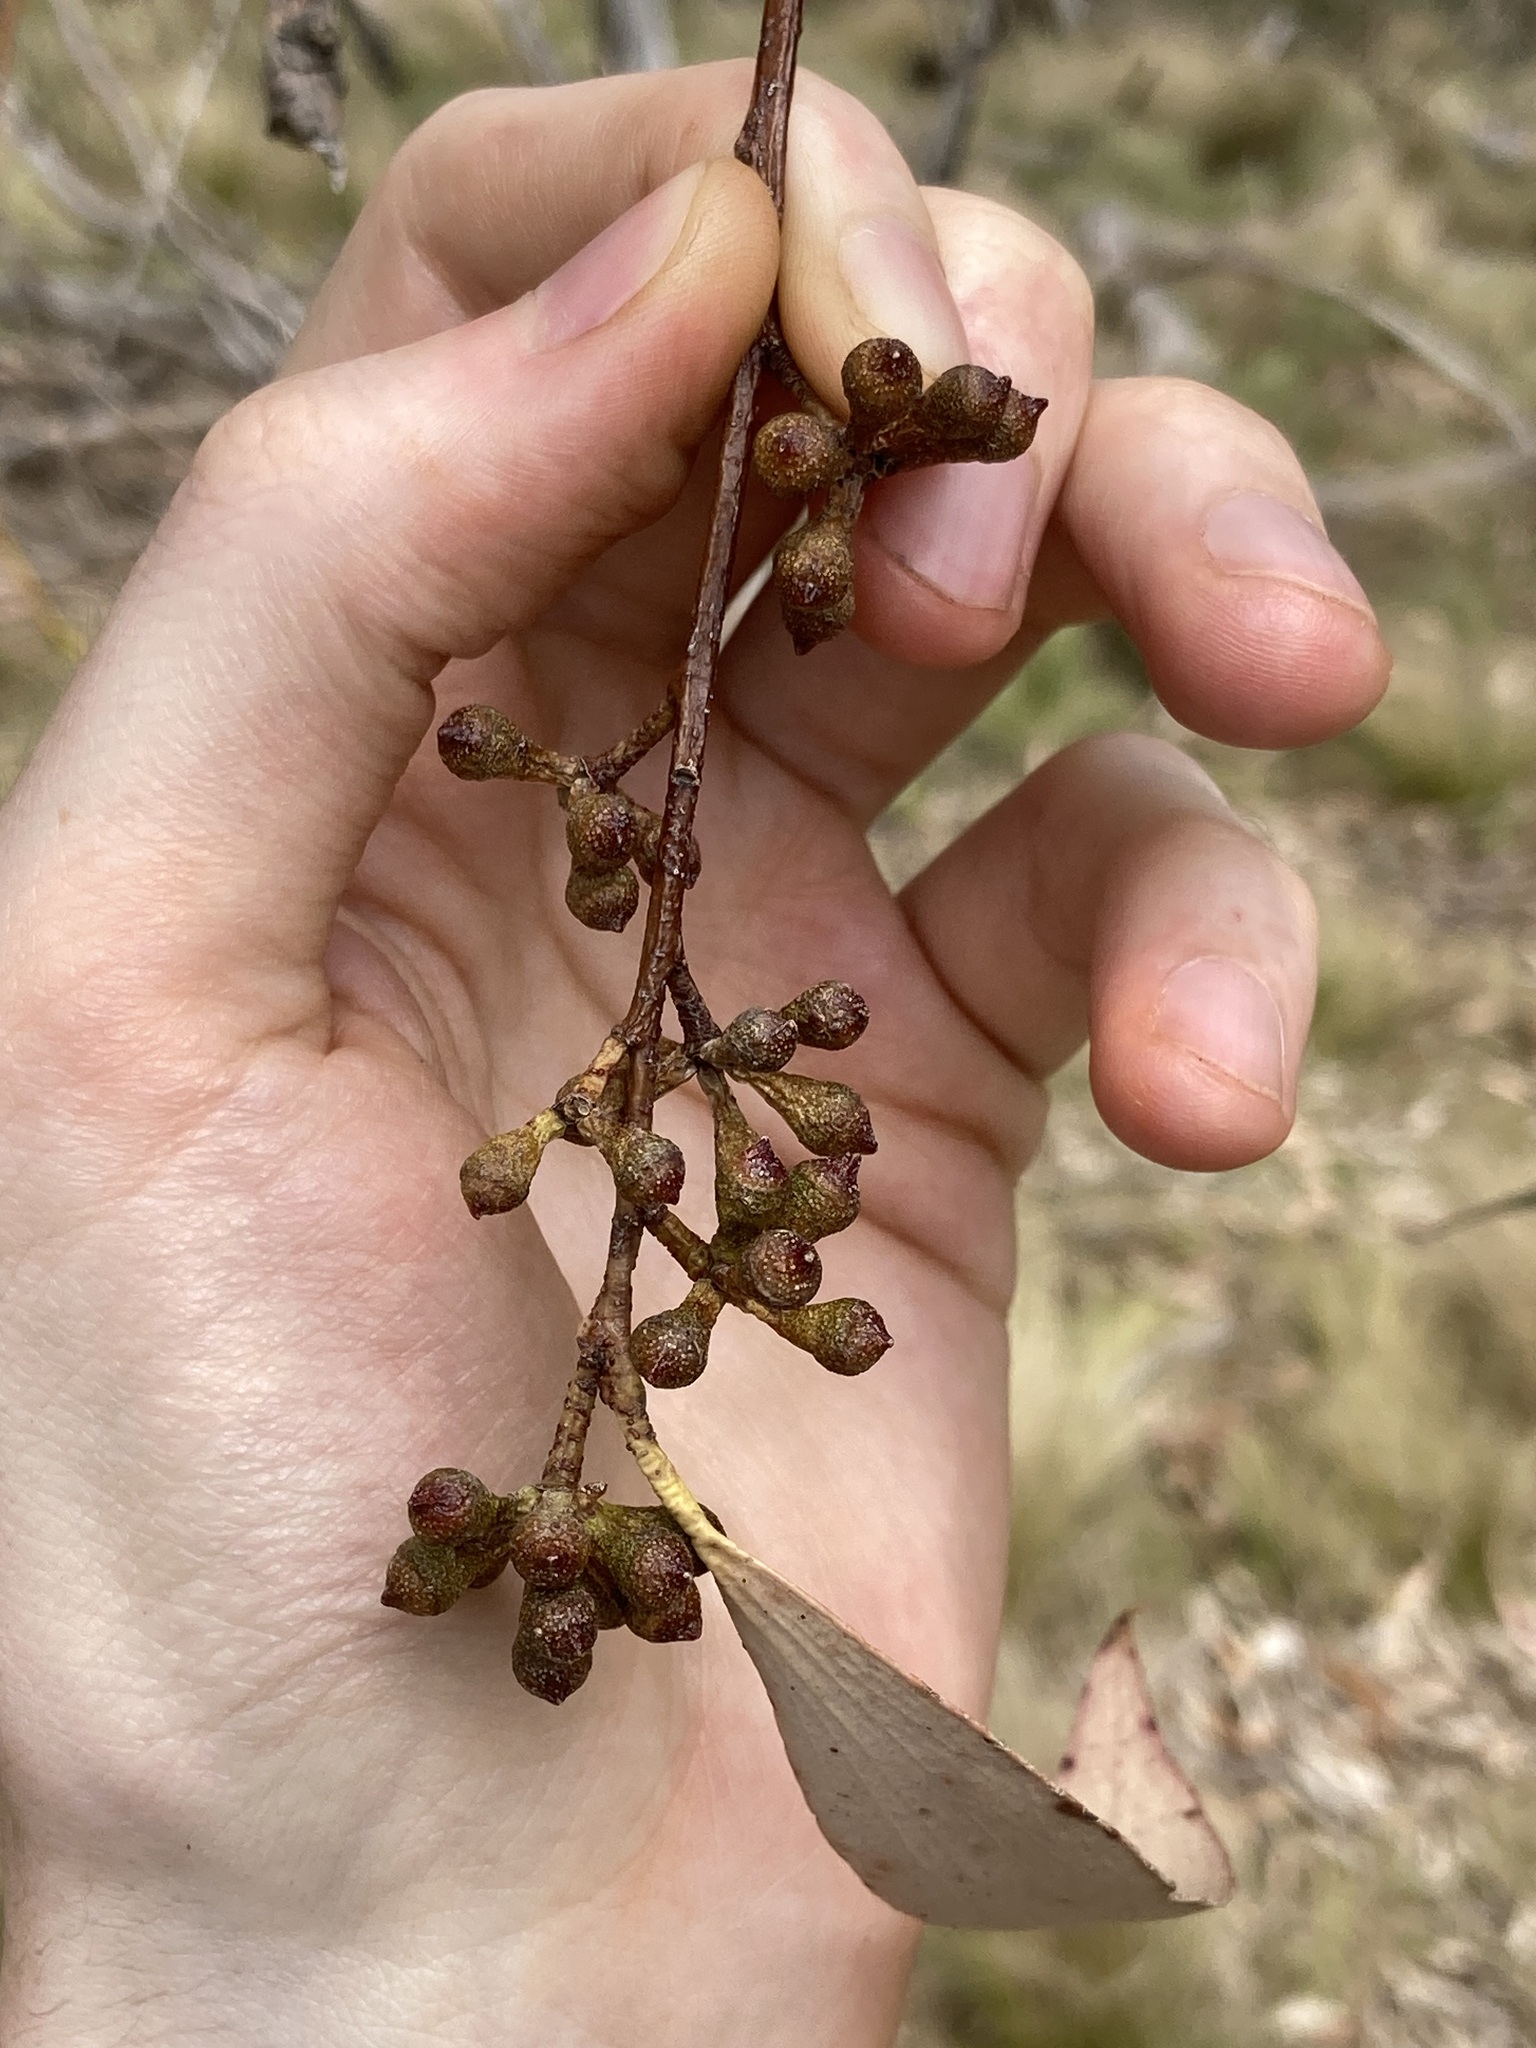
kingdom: Plantae
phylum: Tracheophyta
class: Magnoliopsida
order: Myrtales
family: Myrtaceae
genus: Eucalyptus
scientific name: Eucalyptus pauciflora
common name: Snow gum
